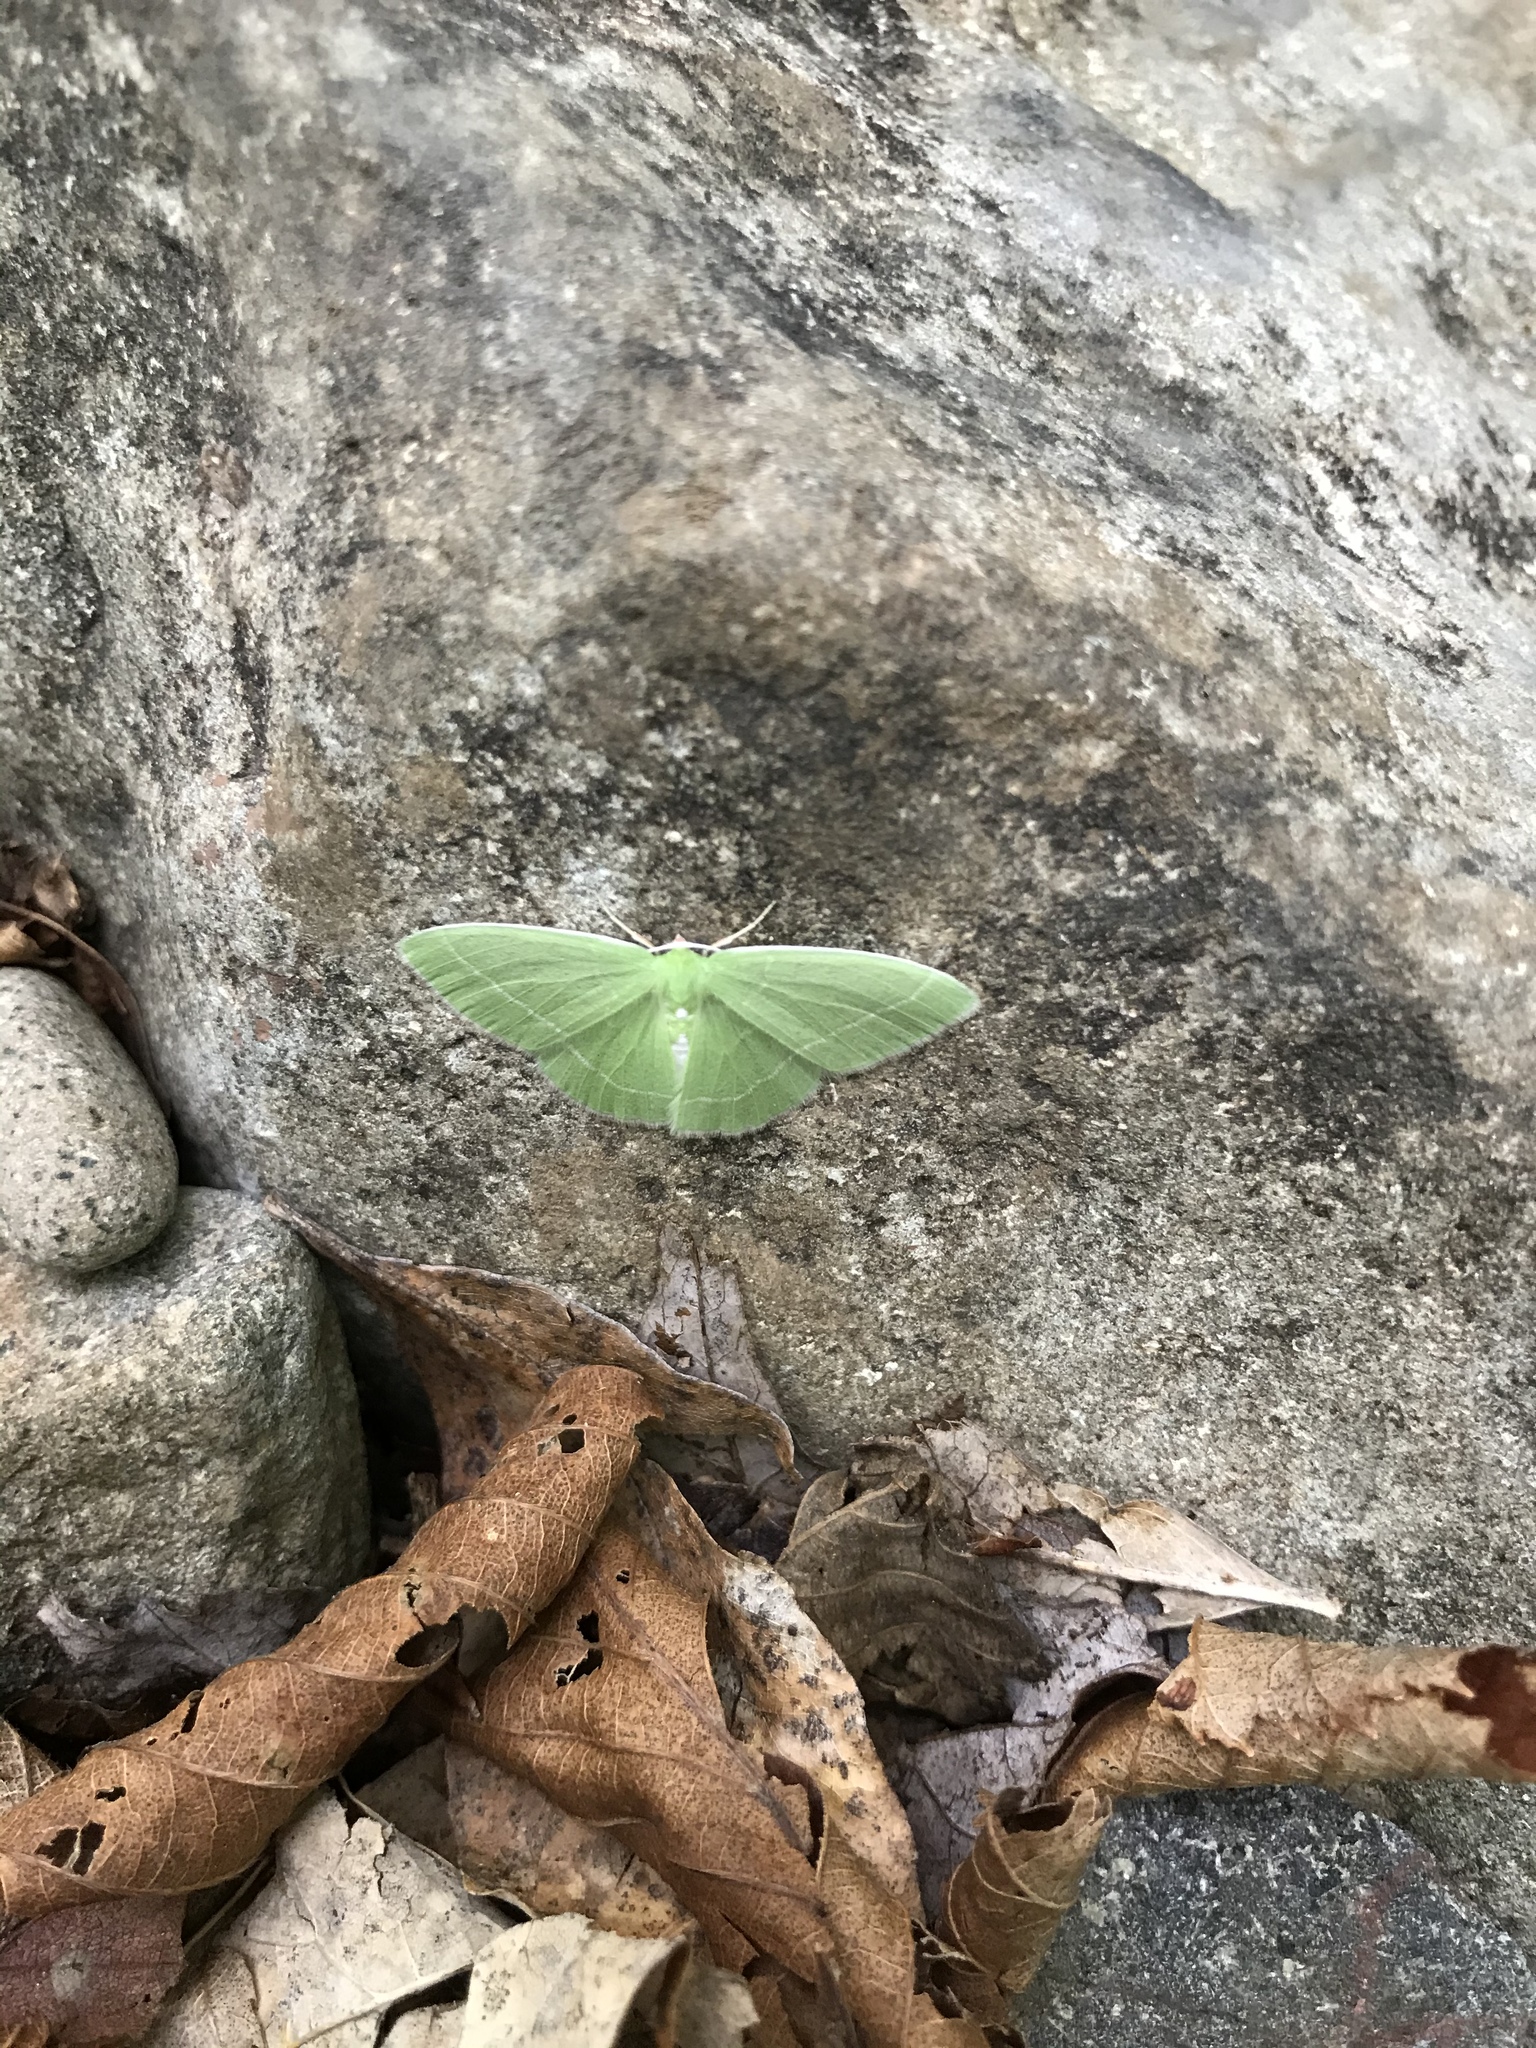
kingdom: Animalia
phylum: Arthropoda
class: Insecta
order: Lepidoptera
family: Geometridae
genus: Nemoria
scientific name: Nemoria mimosaria
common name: White-fringed emerald
